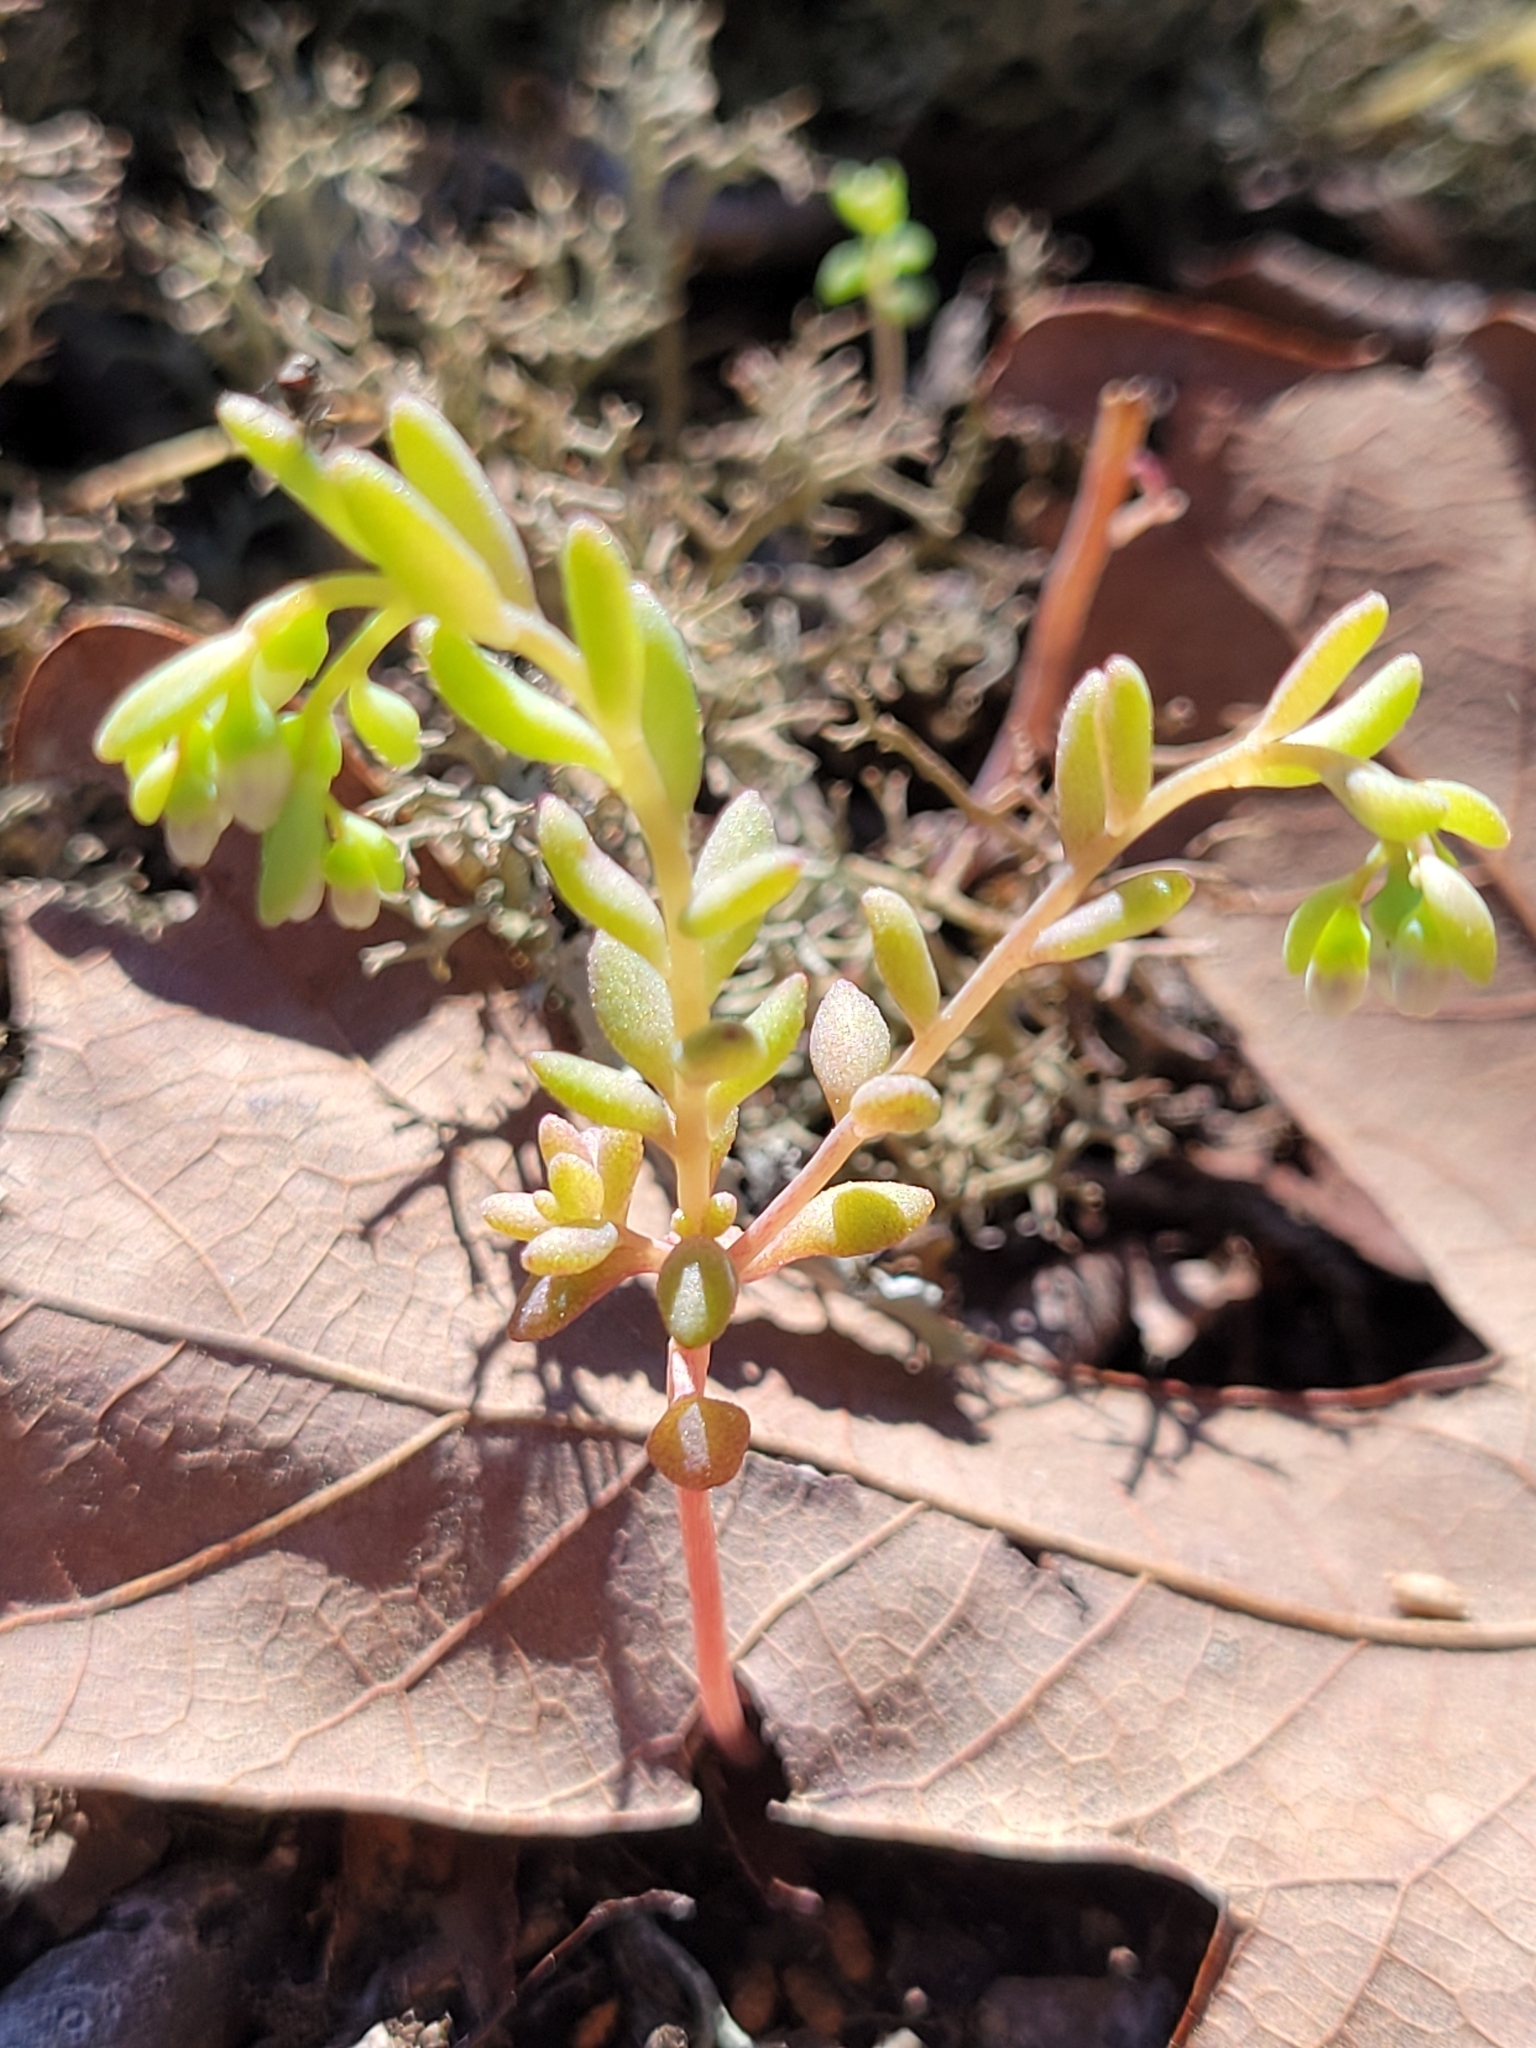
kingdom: Plantae
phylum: Tracheophyta
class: Magnoliopsida
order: Saxifragales
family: Crassulaceae
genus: Sedum
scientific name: Sedum pusillum
